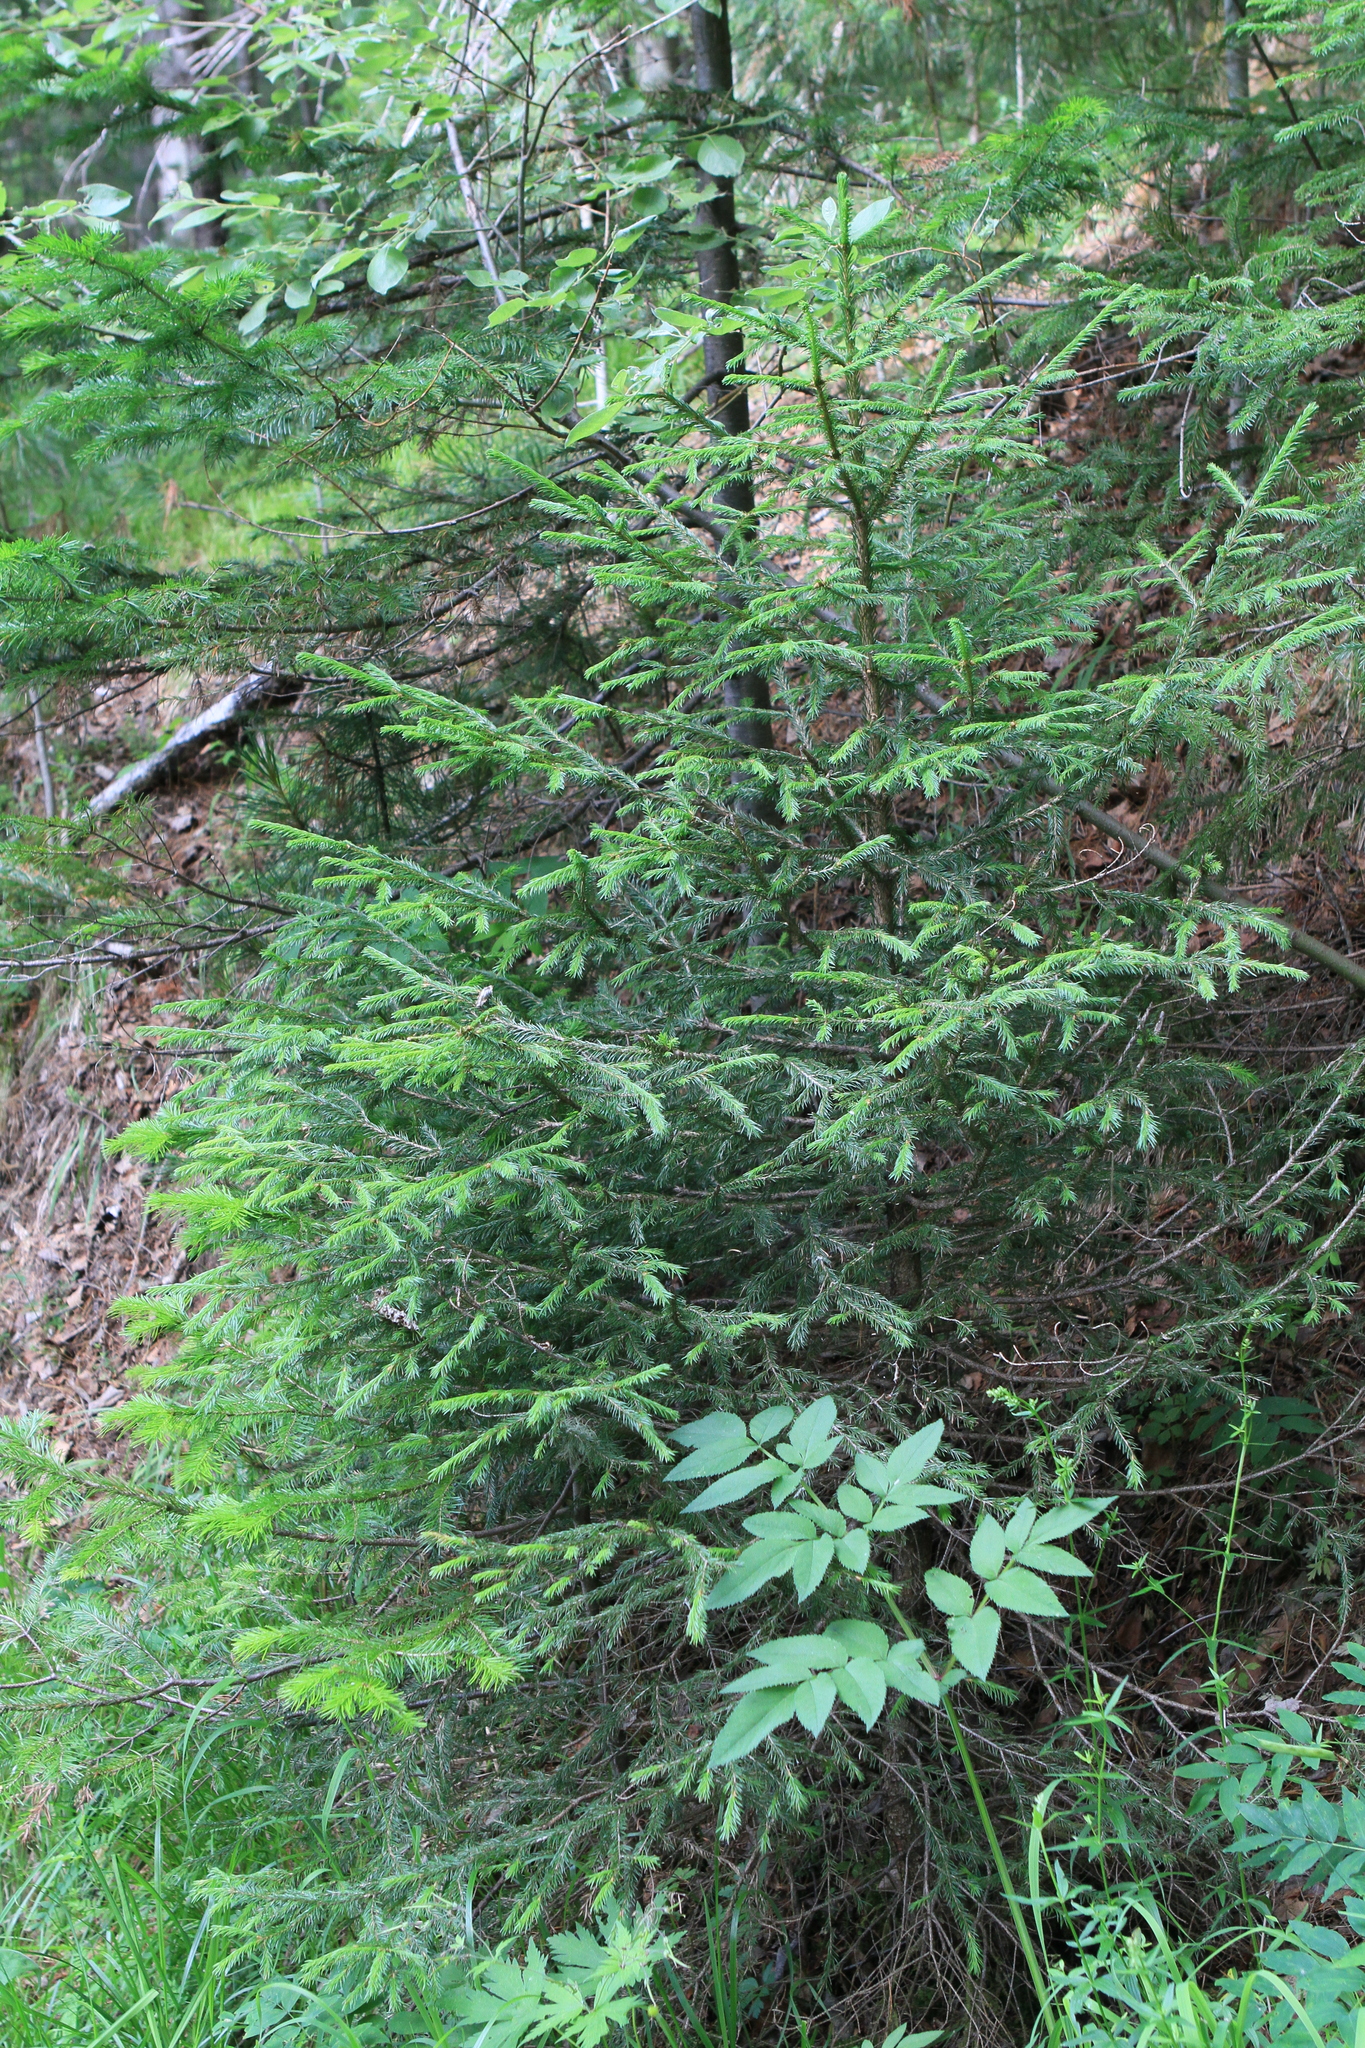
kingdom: Plantae
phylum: Tracheophyta
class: Pinopsida
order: Pinales
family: Pinaceae
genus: Picea
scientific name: Picea obovata
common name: Siberian spruce
